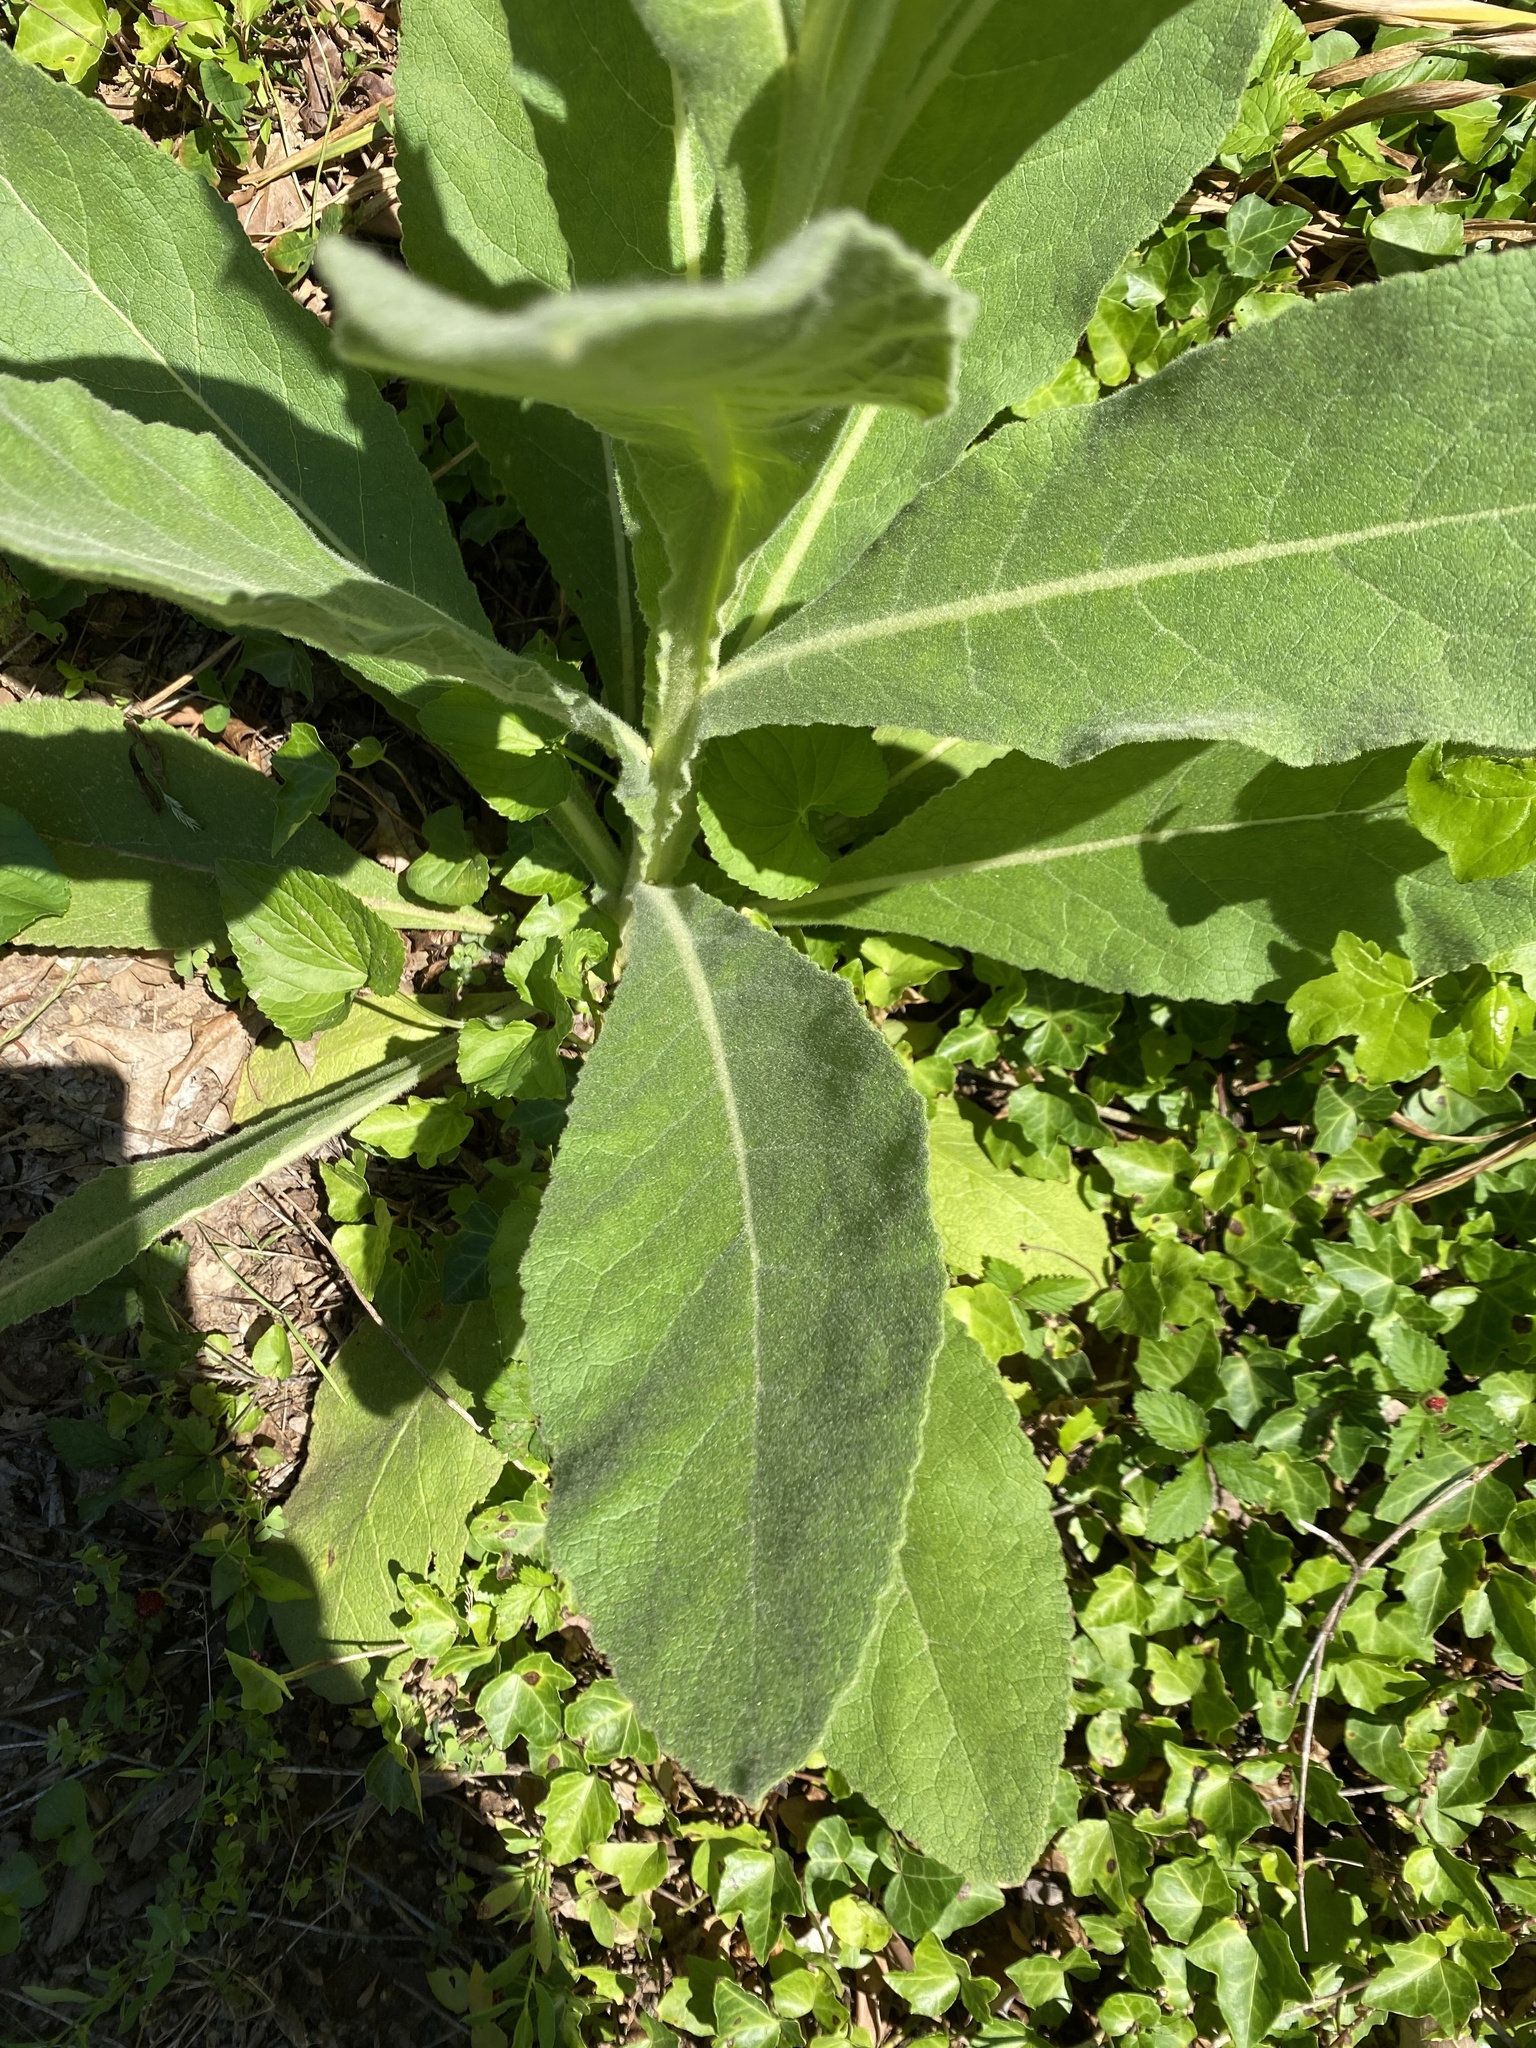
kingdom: Plantae
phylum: Tracheophyta
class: Magnoliopsida
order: Lamiales
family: Scrophulariaceae
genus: Verbascum
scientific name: Verbascum thapsus
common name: Common mullein
